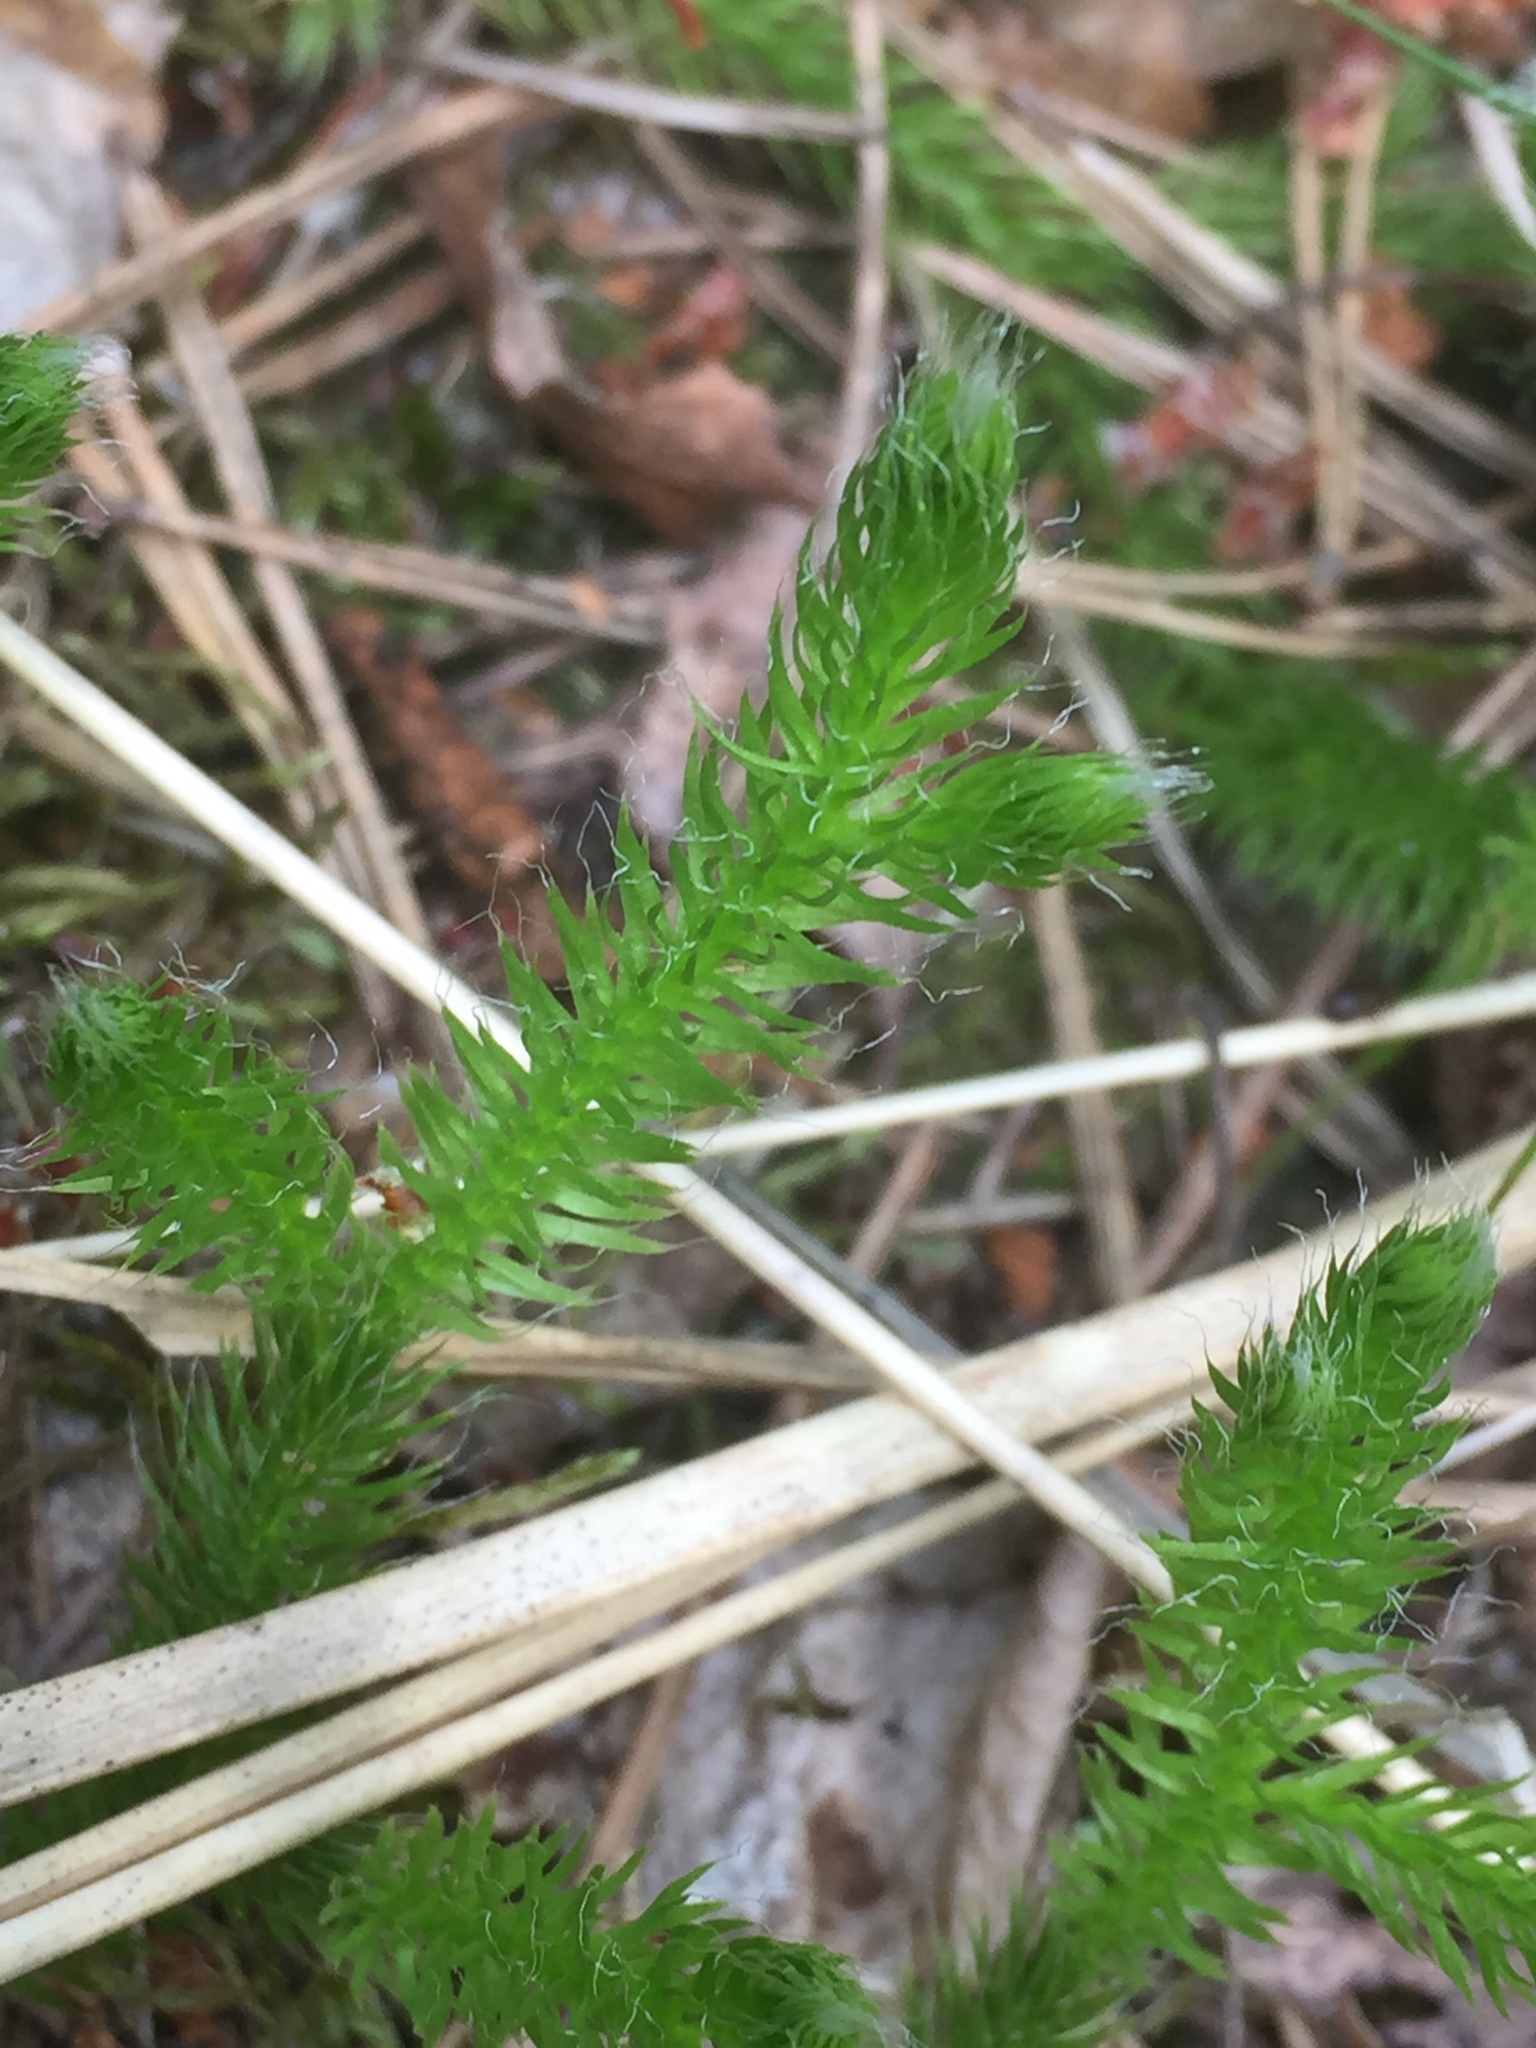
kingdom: Plantae
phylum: Tracheophyta
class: Lycopodiopsida
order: Lycopodiales
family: Lycopodiaceae
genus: Lycopodium
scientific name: Lycopodium clavatum
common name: Stag's-horn clubmoss
